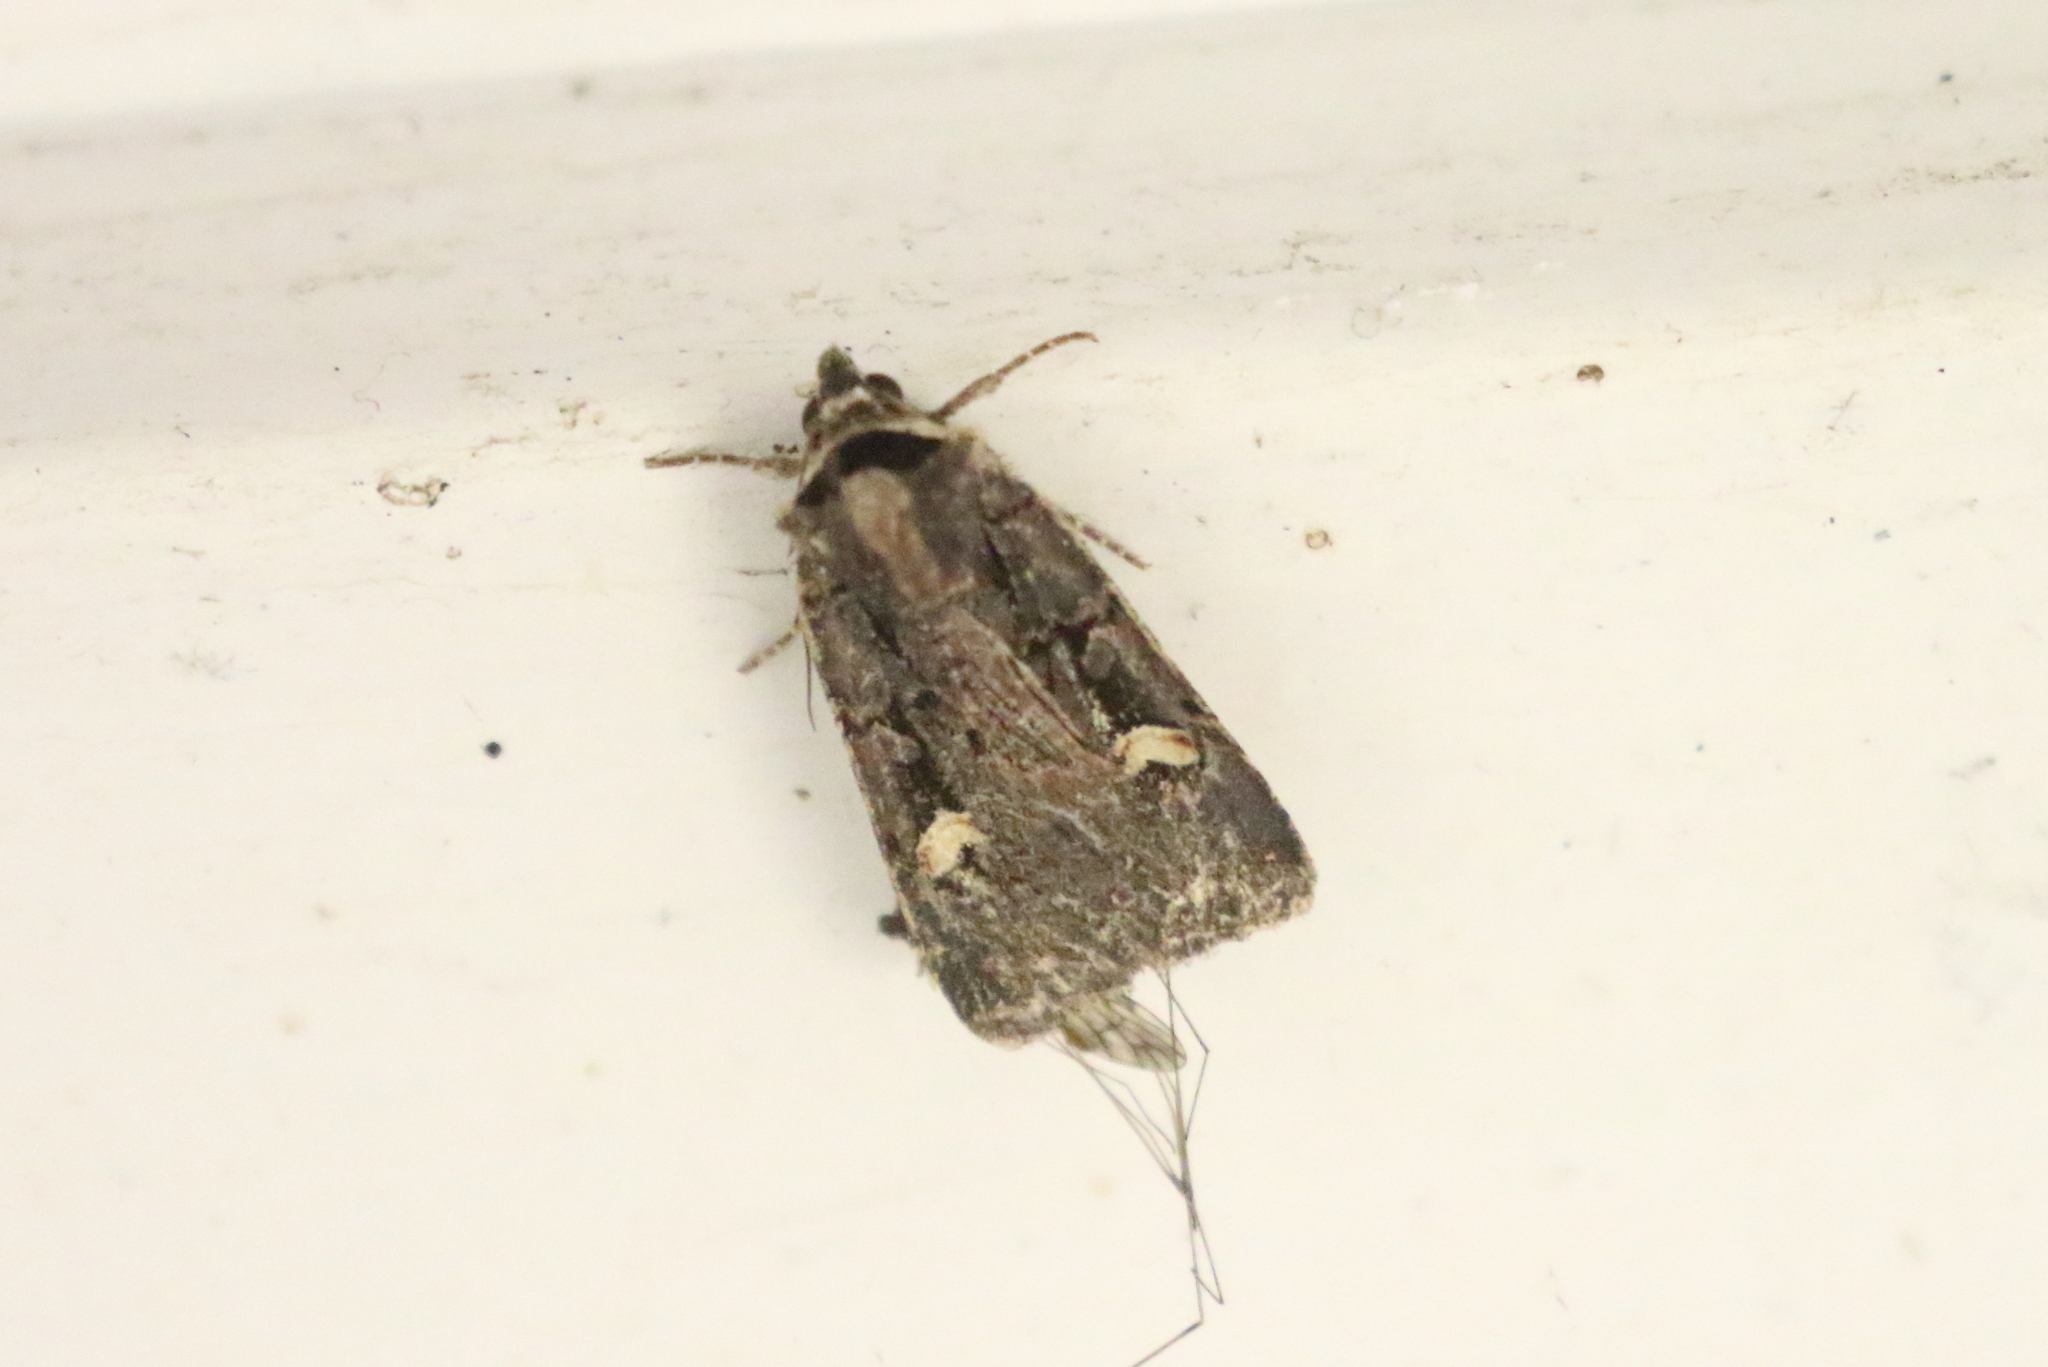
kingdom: Animalia
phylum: Arthropoda
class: Insecta
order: Lepidoptera
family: Noctuidae
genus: Adelphagrotis
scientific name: Adelphagrotis indeterminata
